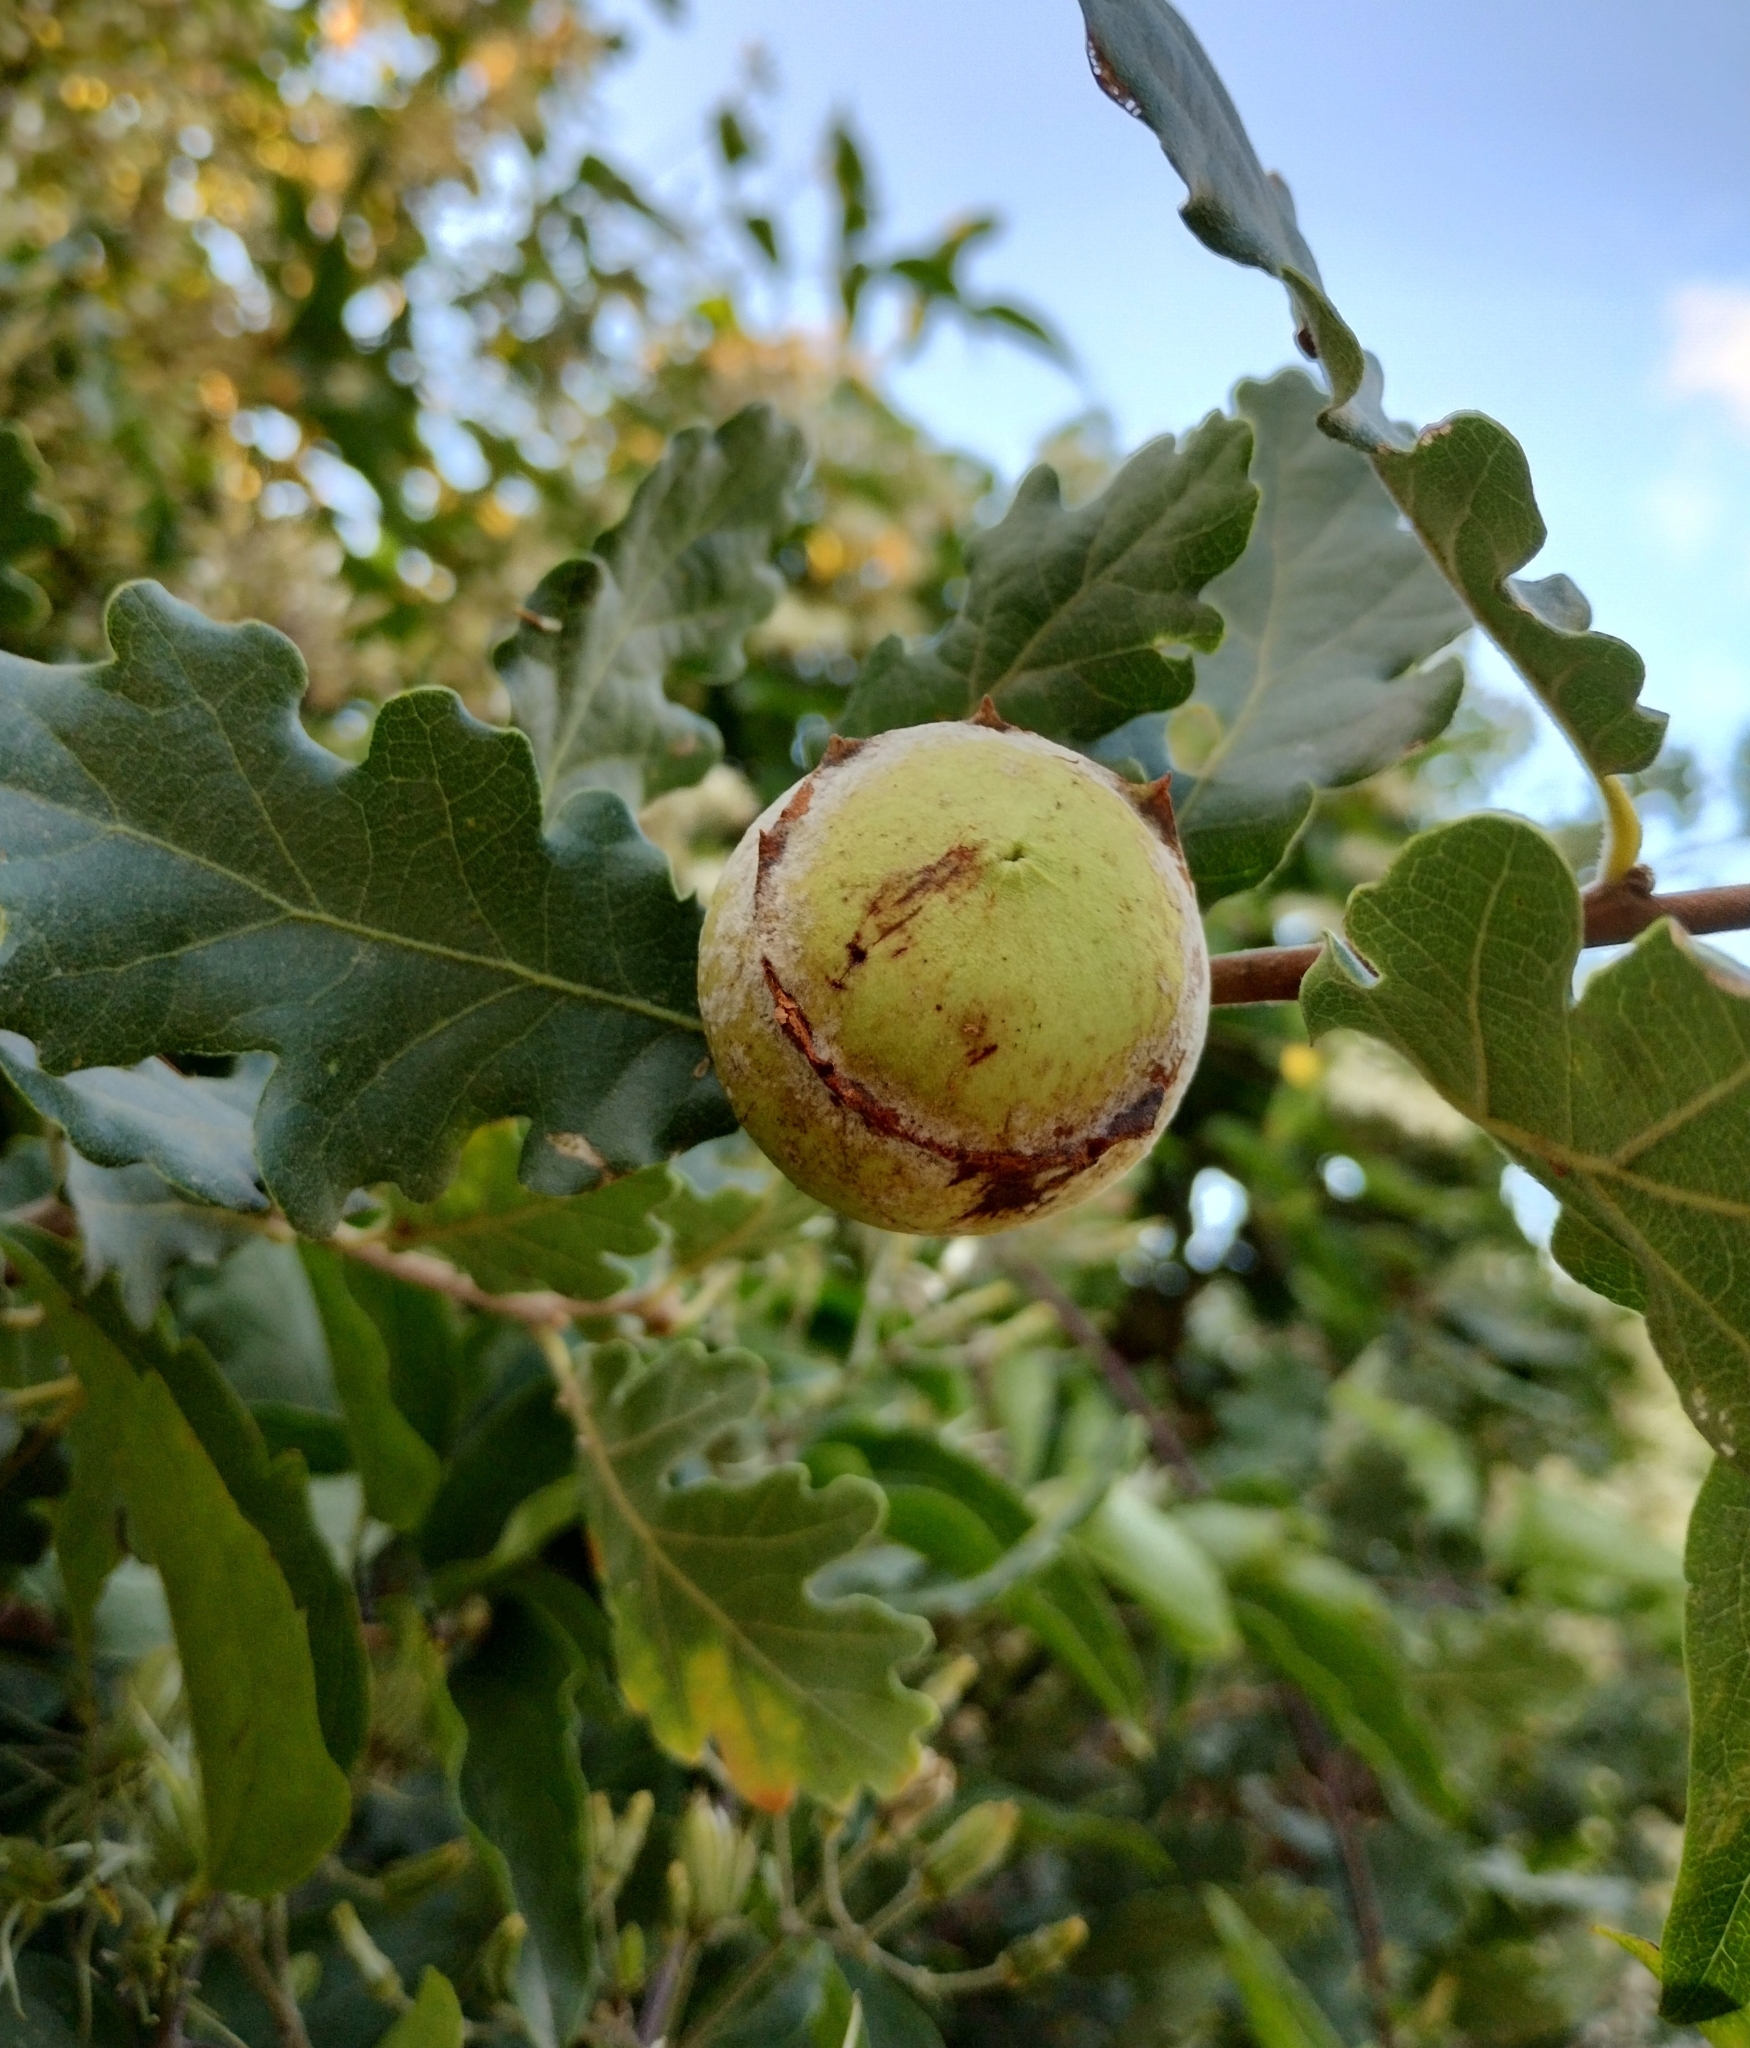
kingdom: Animalia
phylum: Arthropoda
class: Insecta
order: Hymenoptera
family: Cynipidae
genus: Andricus
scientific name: Andricus quercustozae
